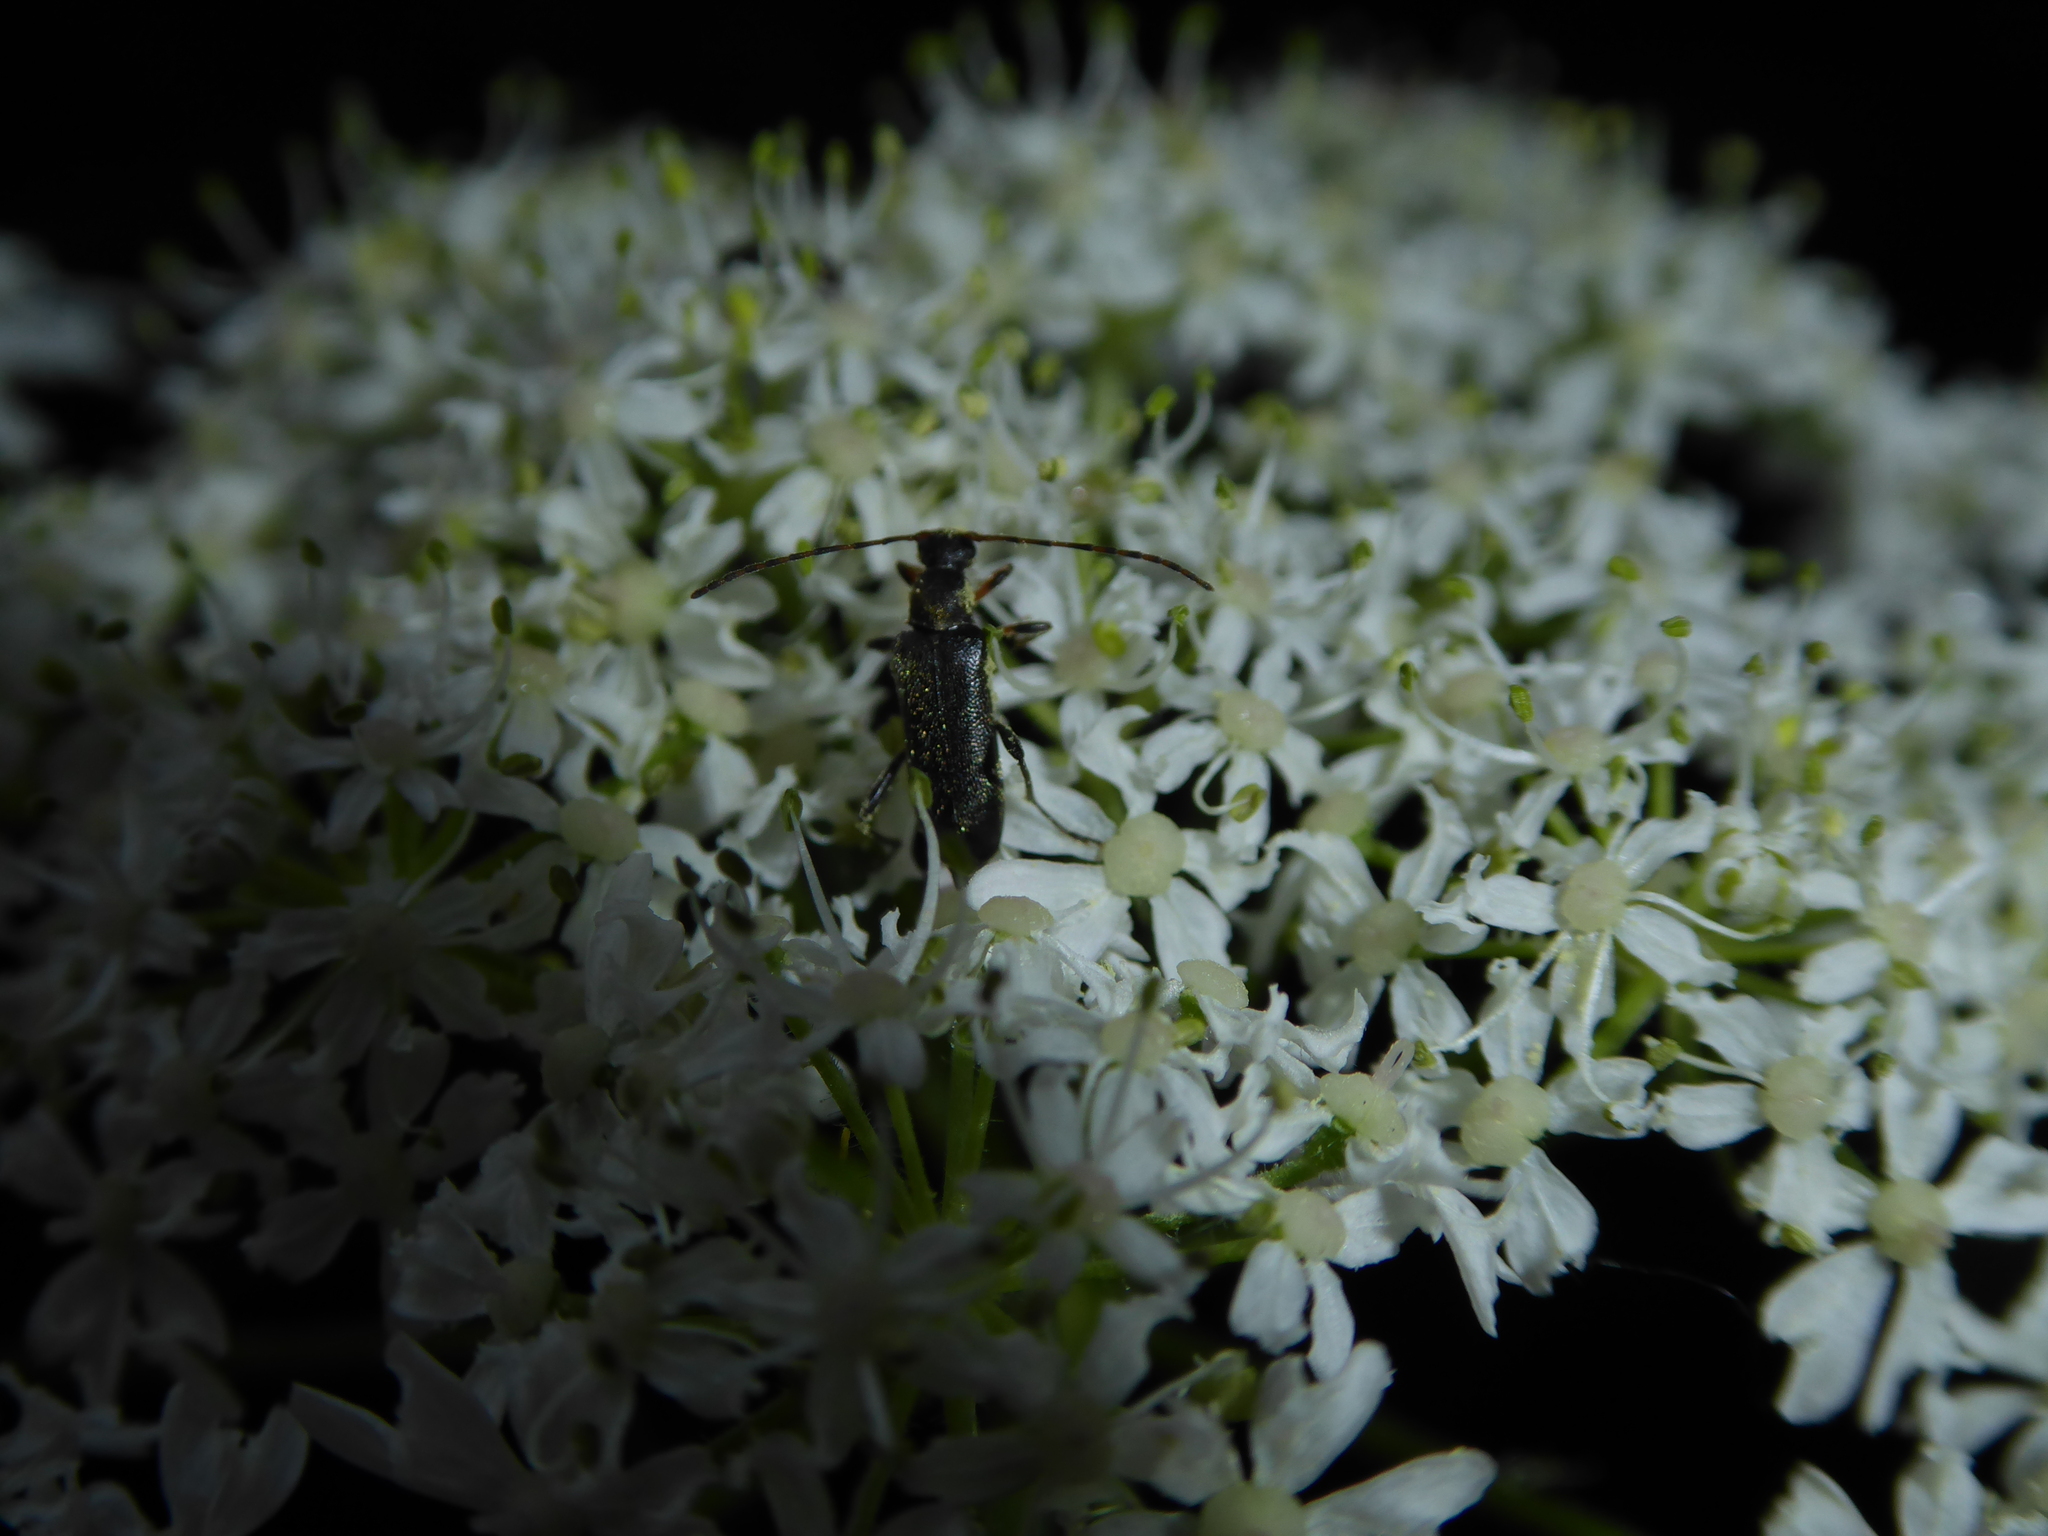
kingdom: Animalia
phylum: Arthropoda
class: Insecta
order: Coleoptera
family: Cerambycidae
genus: Grammoptera
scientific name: Grammoptera ruficornis
